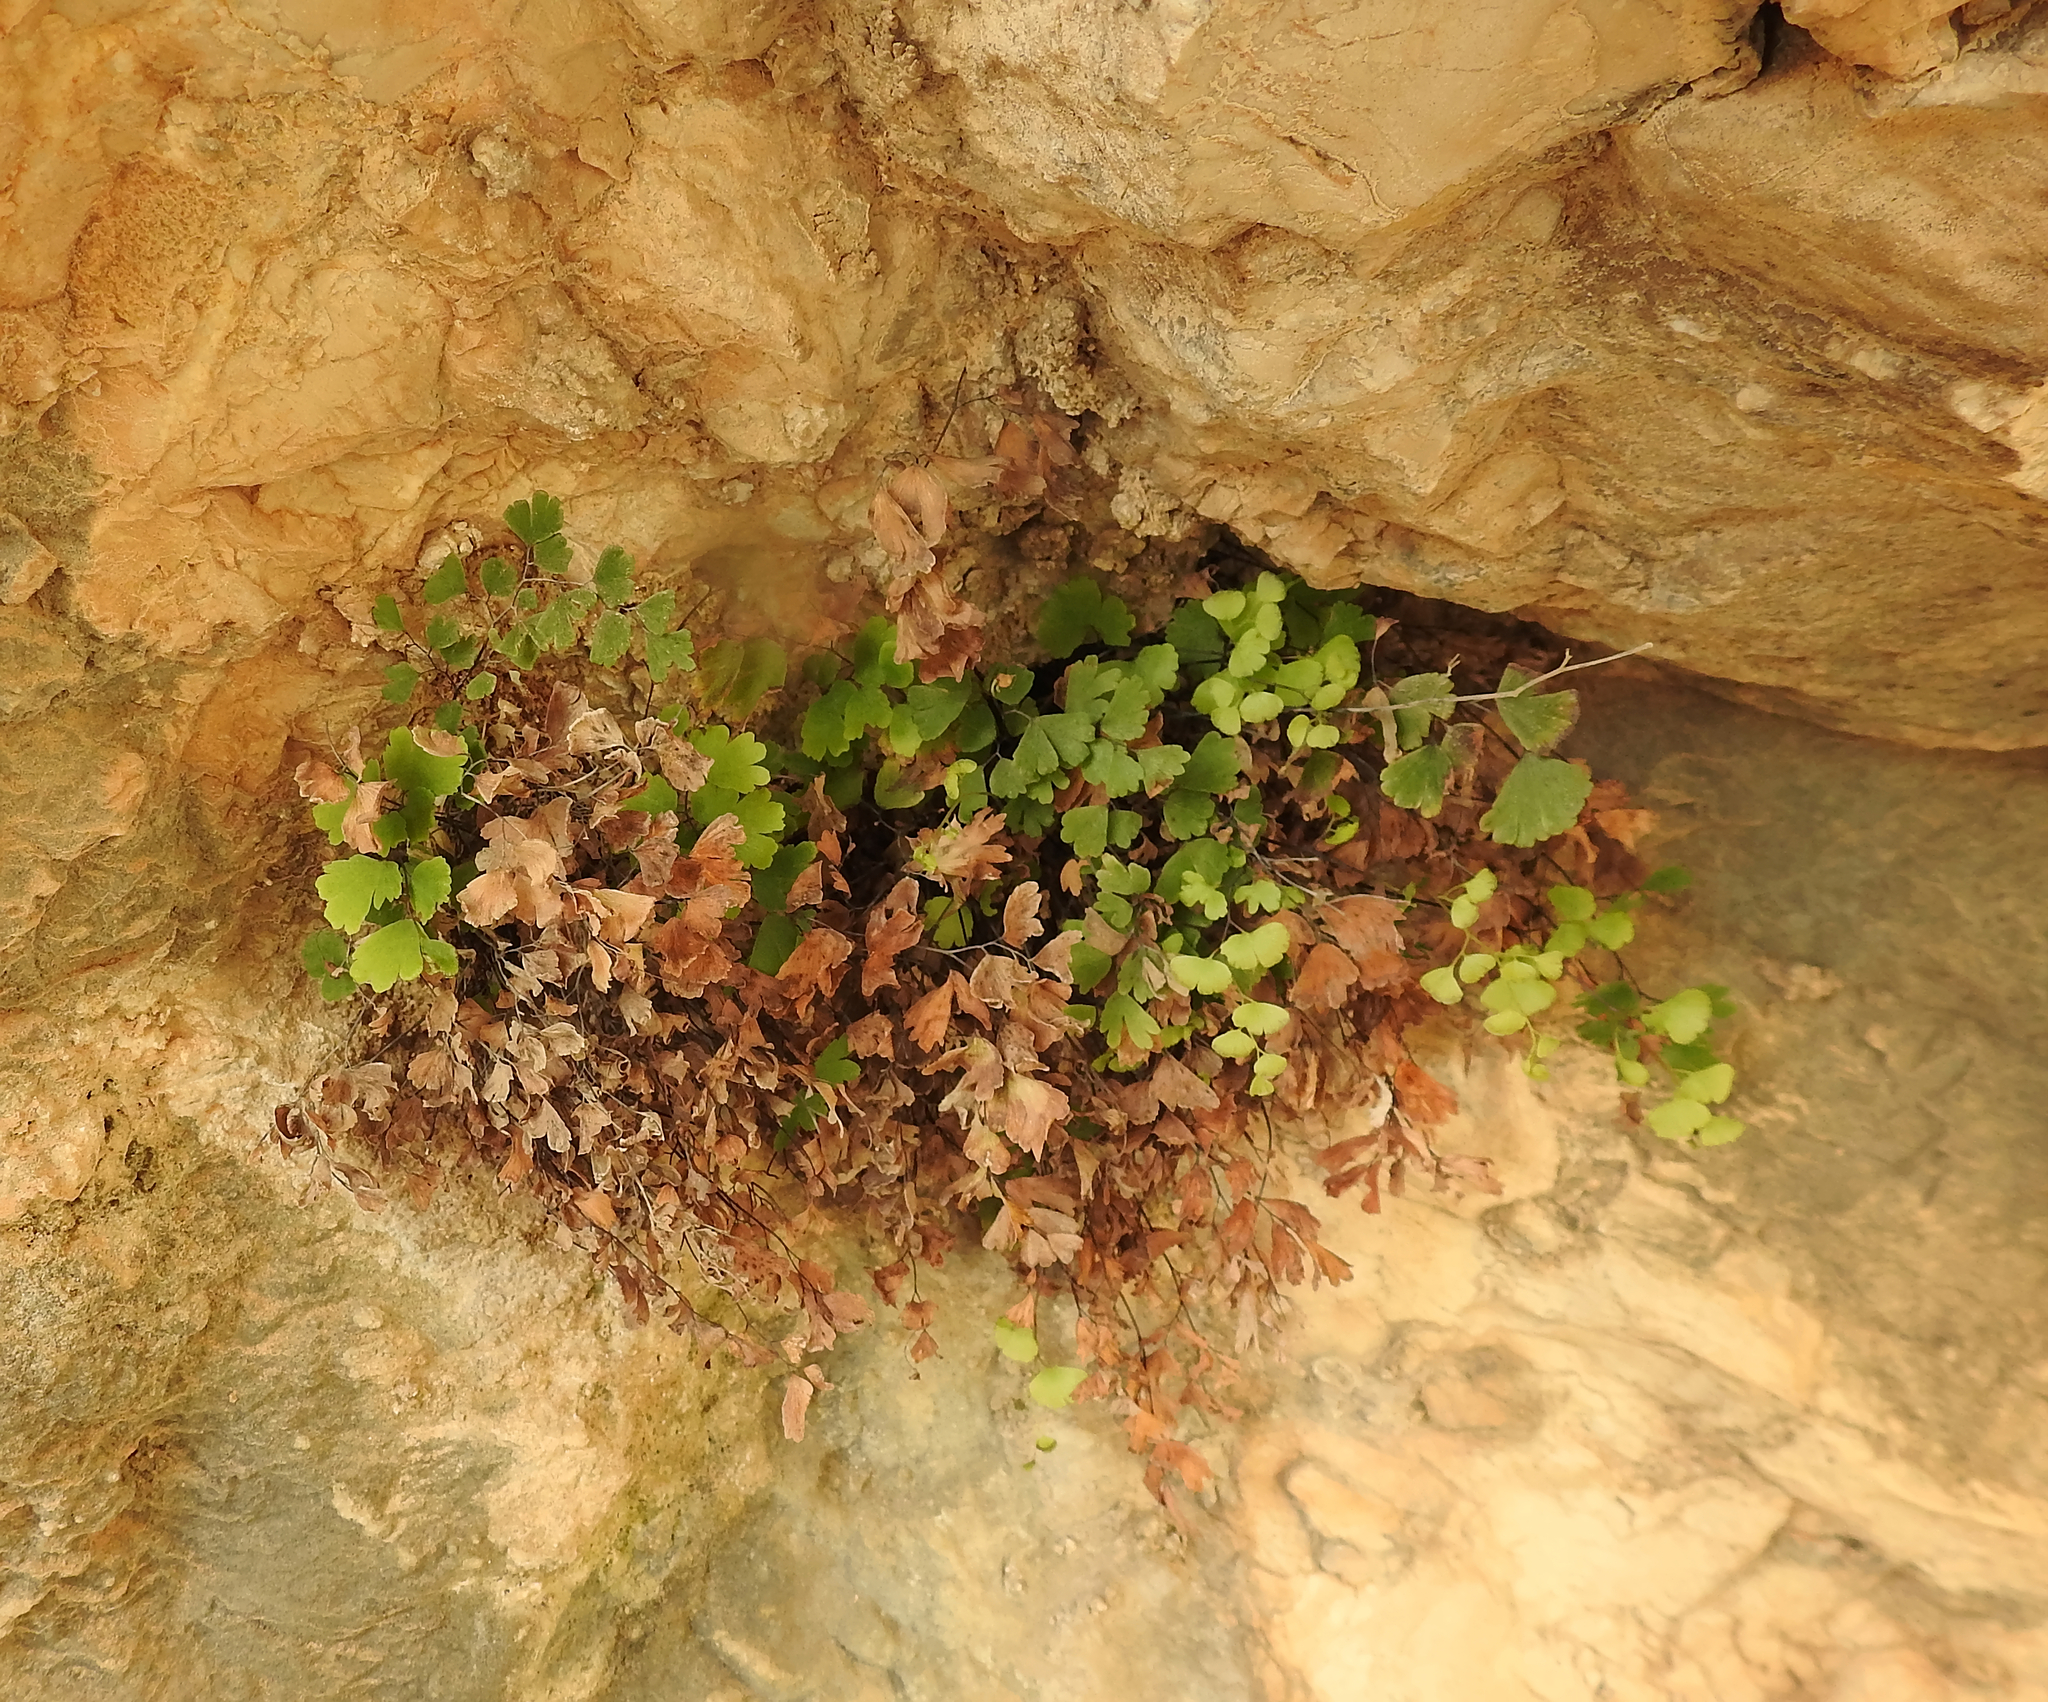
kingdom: Plantae
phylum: Tracheophyta
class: Polypodiopsida
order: Polypodiales
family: Pteridaceae
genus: Adiantum
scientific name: Adiantum capillus-veneris
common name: Maidenhair fern
